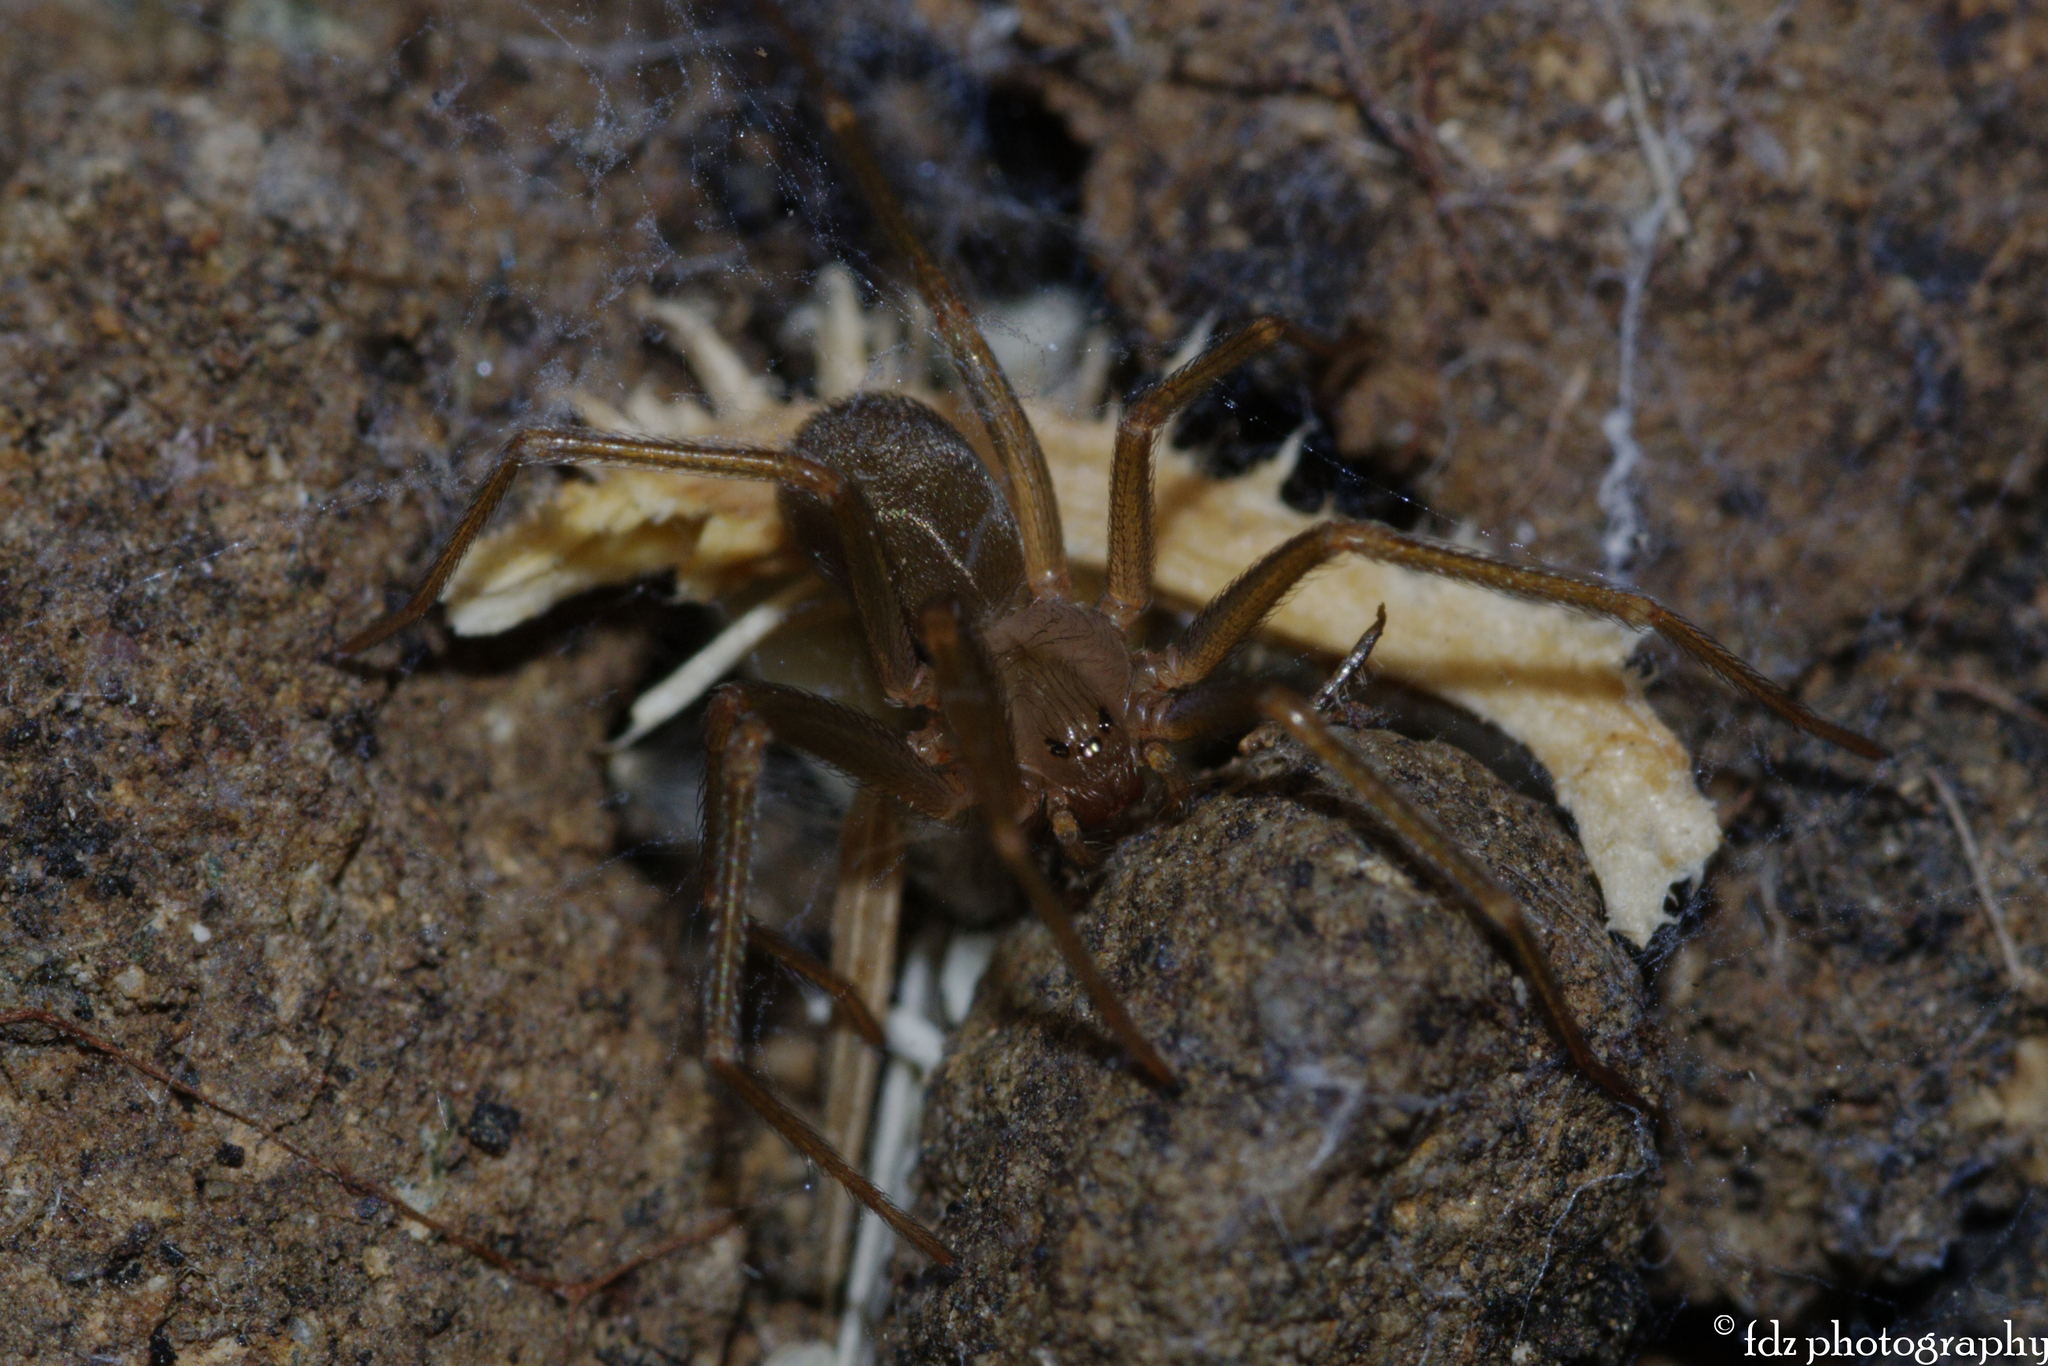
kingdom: Animalia
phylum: Arthropoda
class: Arachnida
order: Araneae
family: Sicariidae
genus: Loxosceles
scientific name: Loxosceles rufescens
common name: Mediterranean recluse spider
